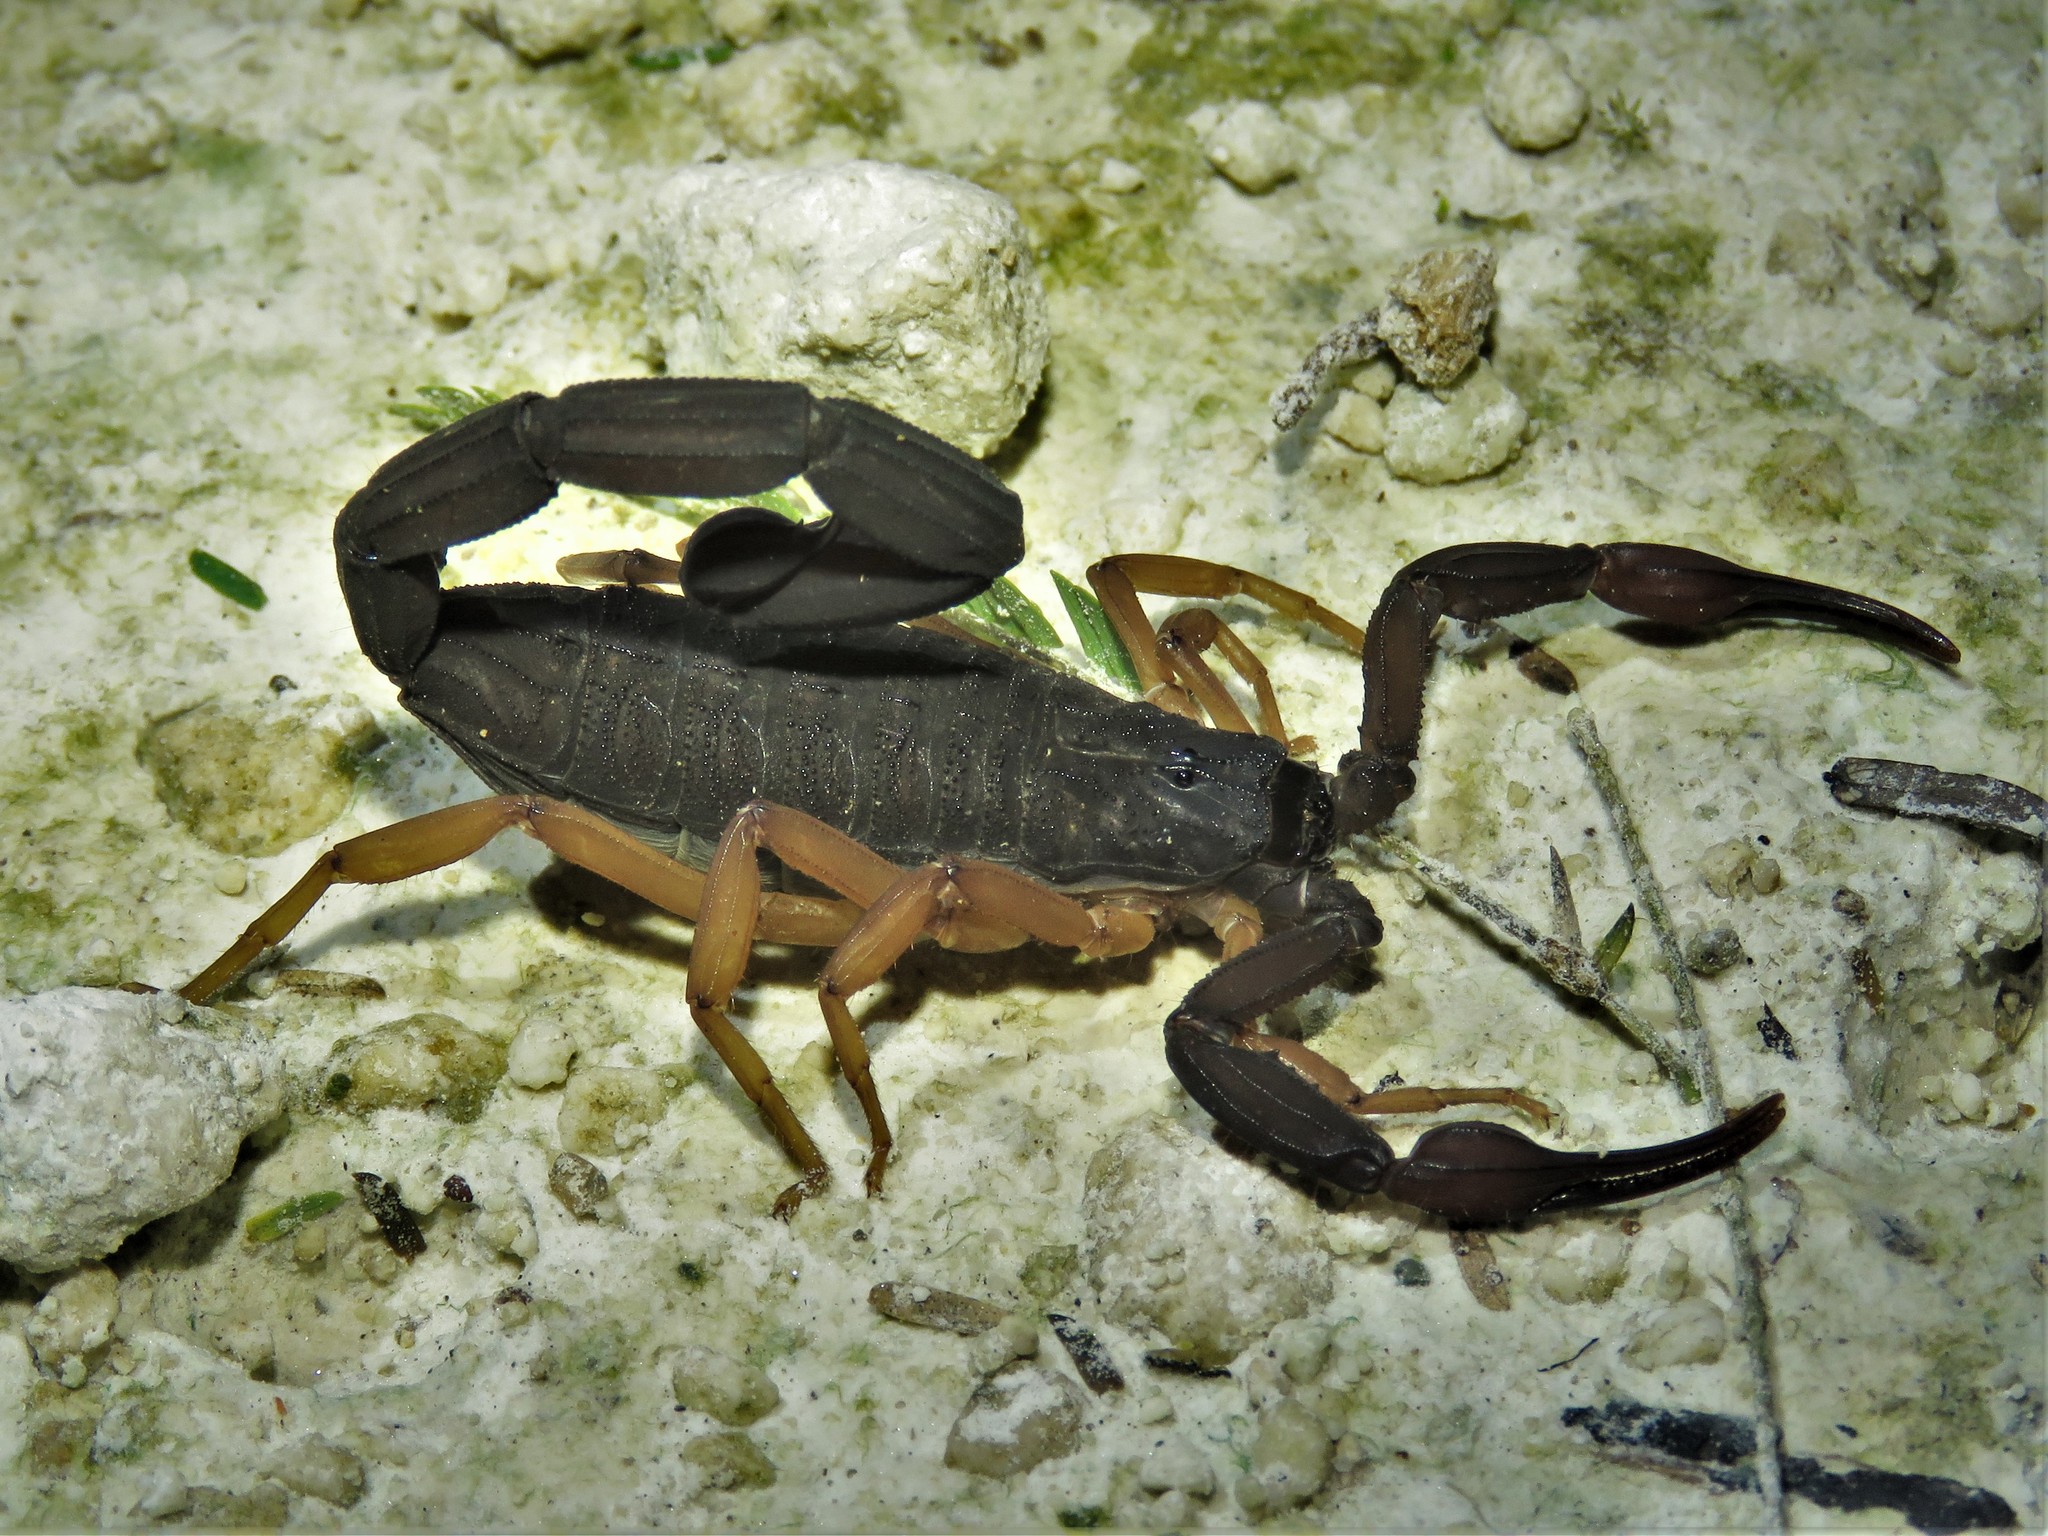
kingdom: Animalia
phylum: Arthropoda
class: Arachnida
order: Scorpiones
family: Buthidae
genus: Centruroides
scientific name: Centruroides gracilis
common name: Scorpions
